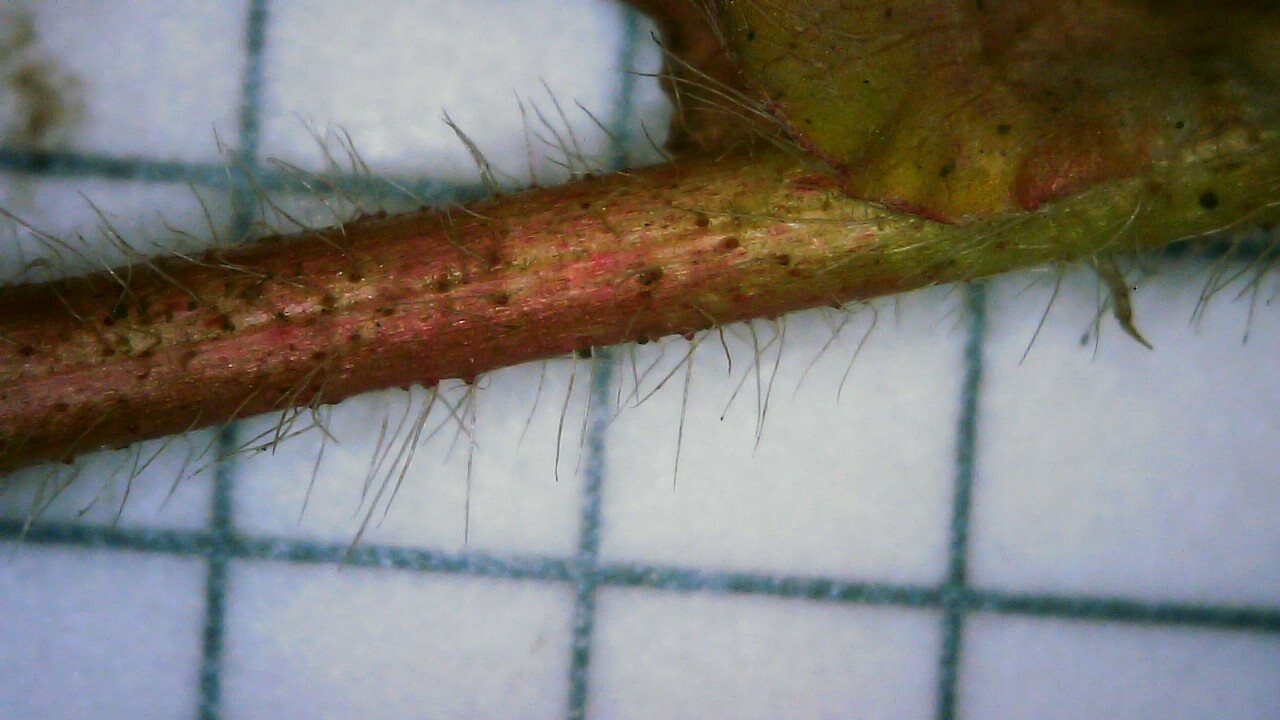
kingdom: Plantae
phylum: Tracheophyta
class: Magnoliopsida
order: Rosales
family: Rosaceae
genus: Potentilla
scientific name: Potentilla norvegica
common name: Ternate-leaved cinquefoil
